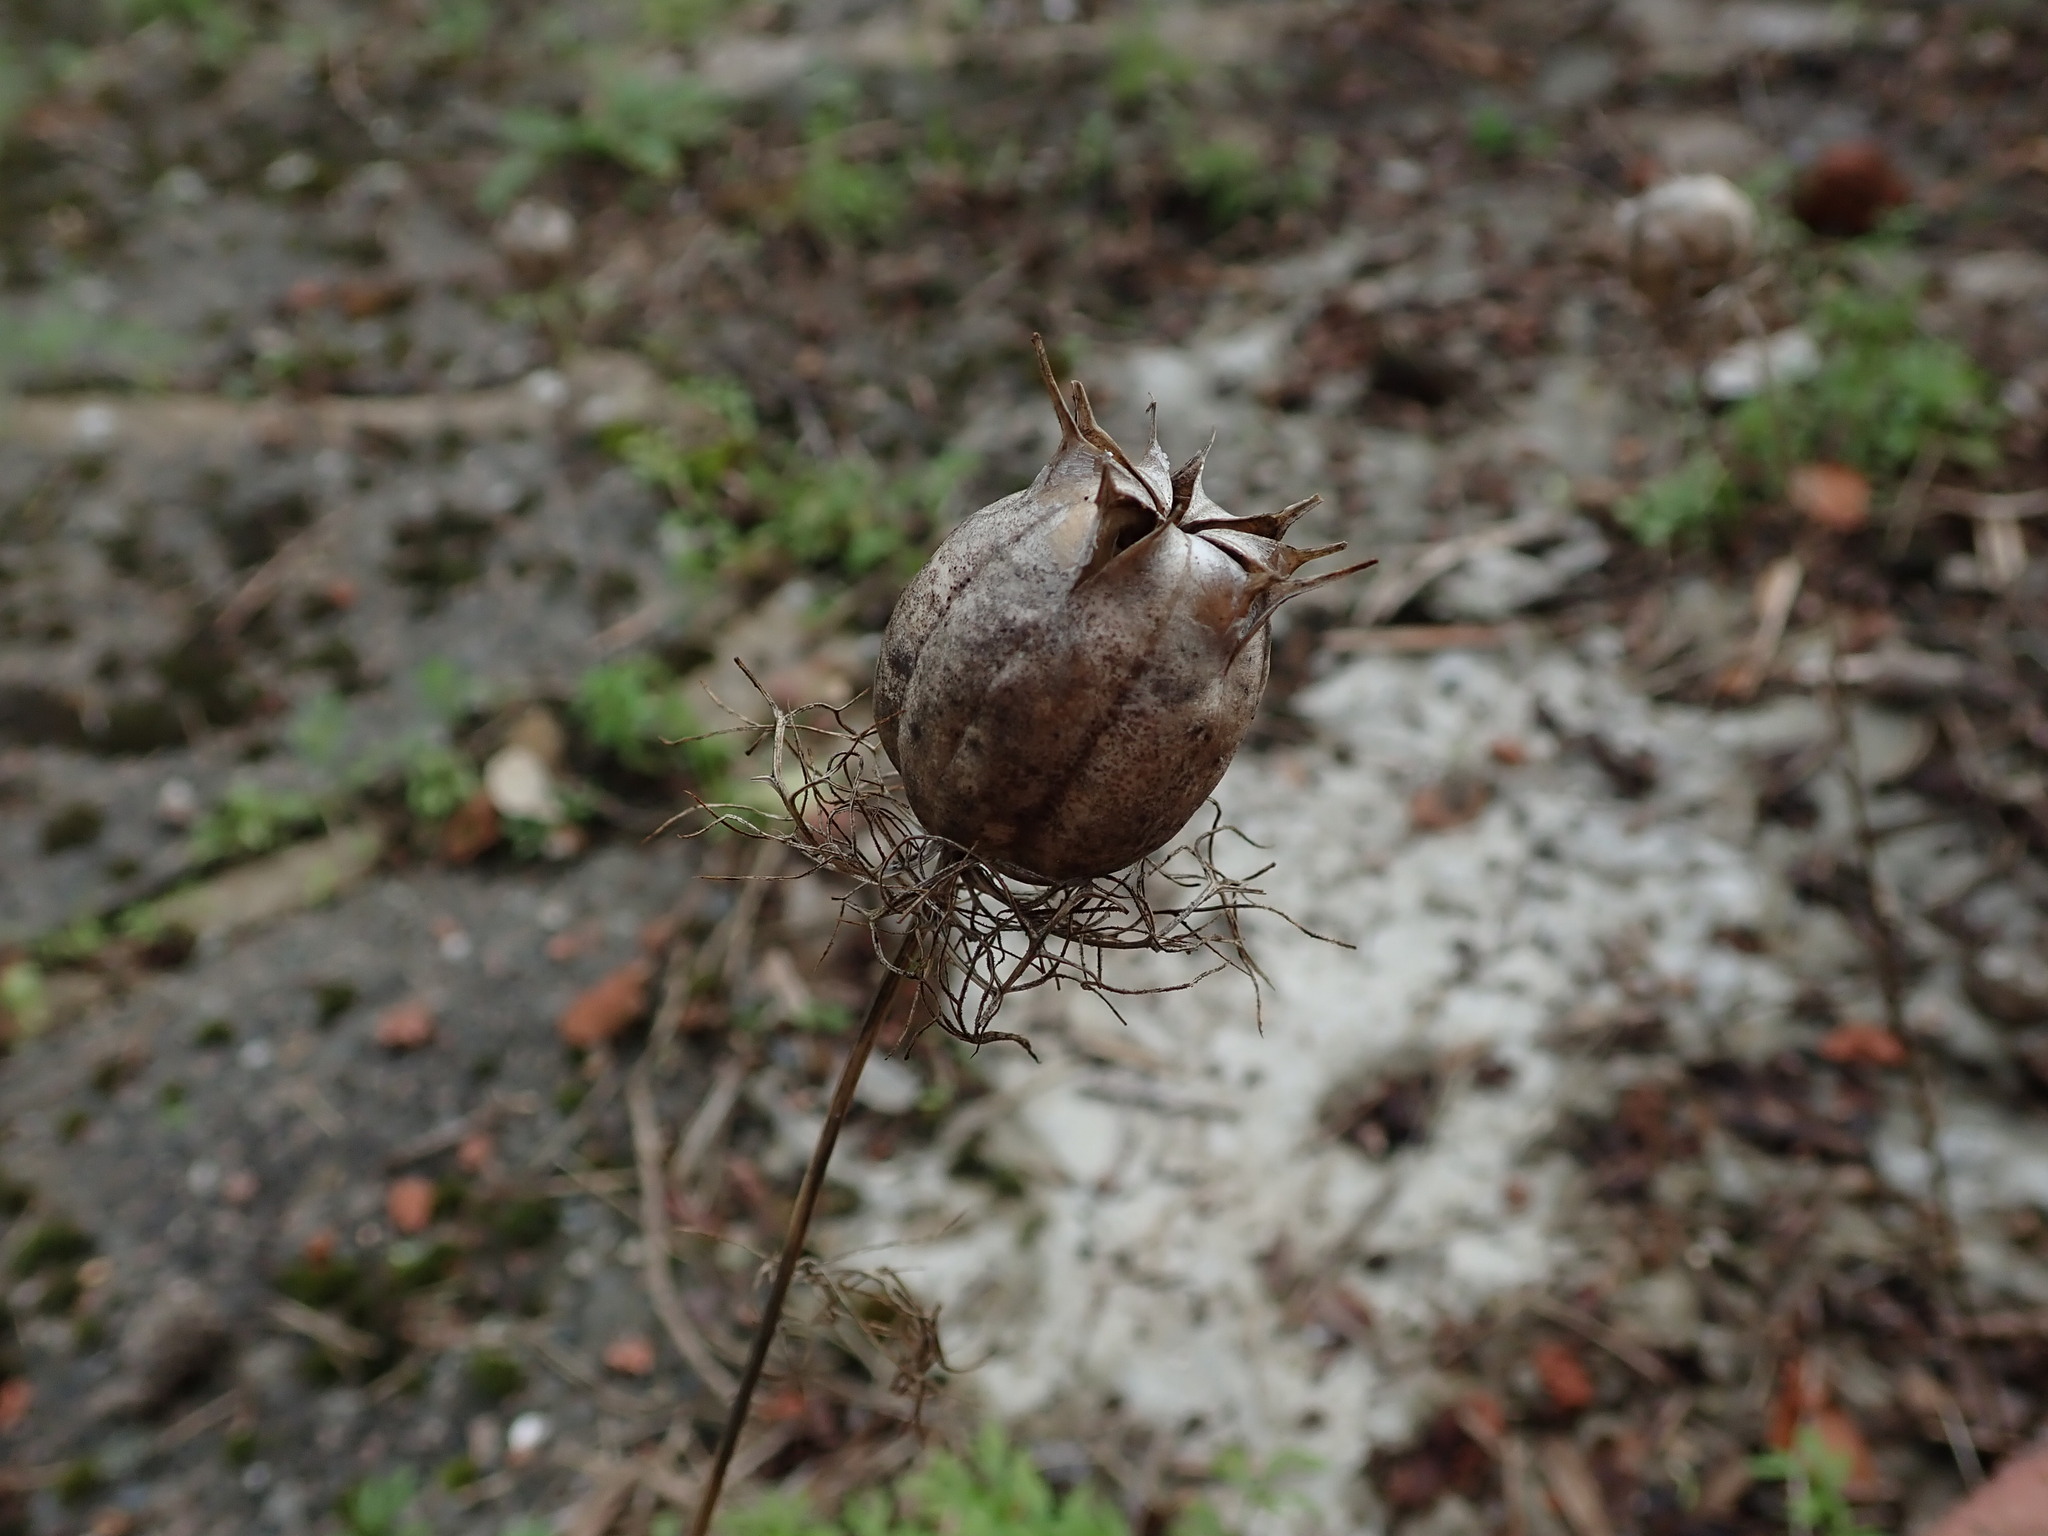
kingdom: Plantae
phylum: Tracheophyta
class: Magnoliopsida
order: Ranunculales
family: Ranunculaceae
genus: Nigella
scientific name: Nigella damascena
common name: Love-in-a-mist
